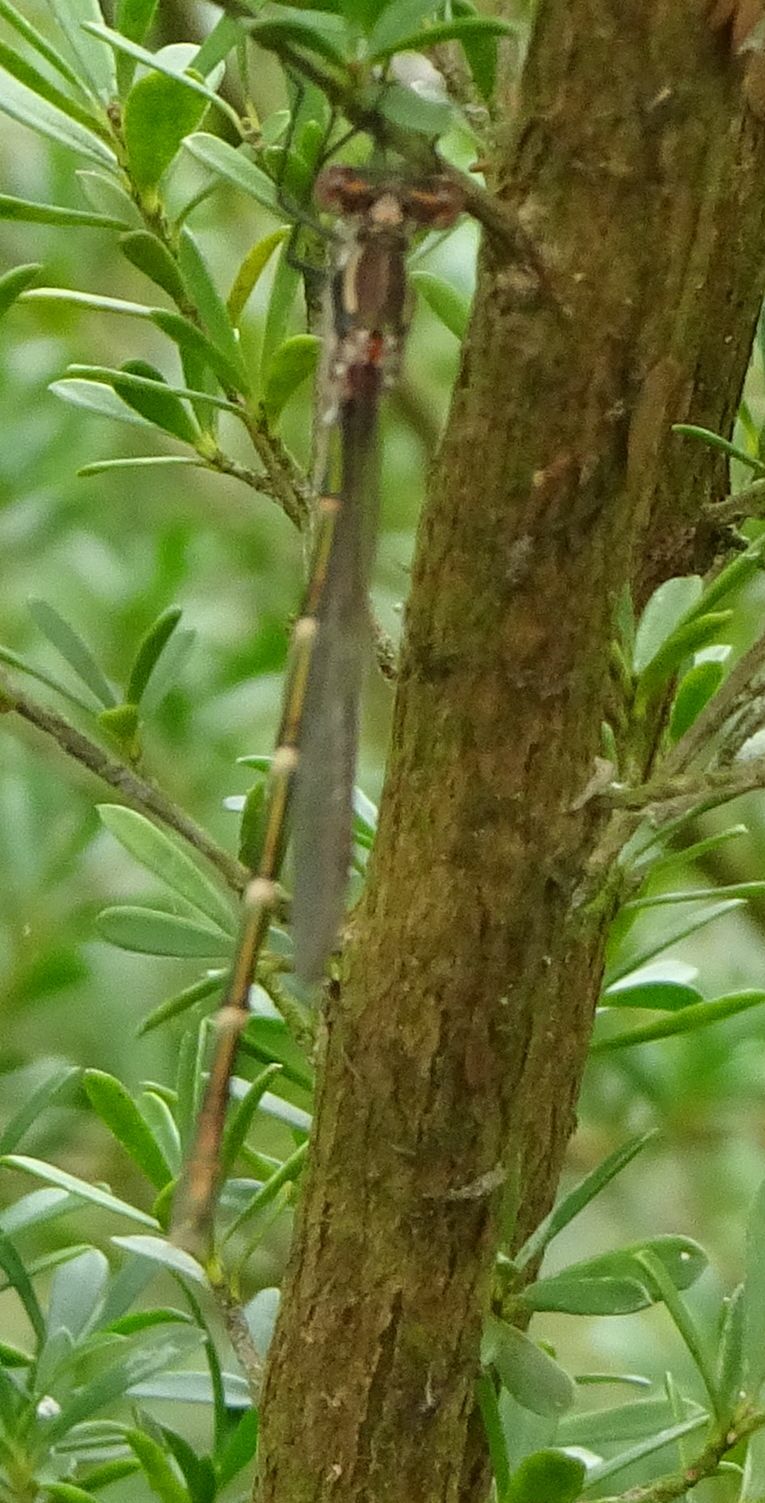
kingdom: Animalia
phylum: Arthropoda
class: Insecta
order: Odonata
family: Lestidae
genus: Austrolestes
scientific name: Austrolestes annulosus
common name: Blue ringtail
